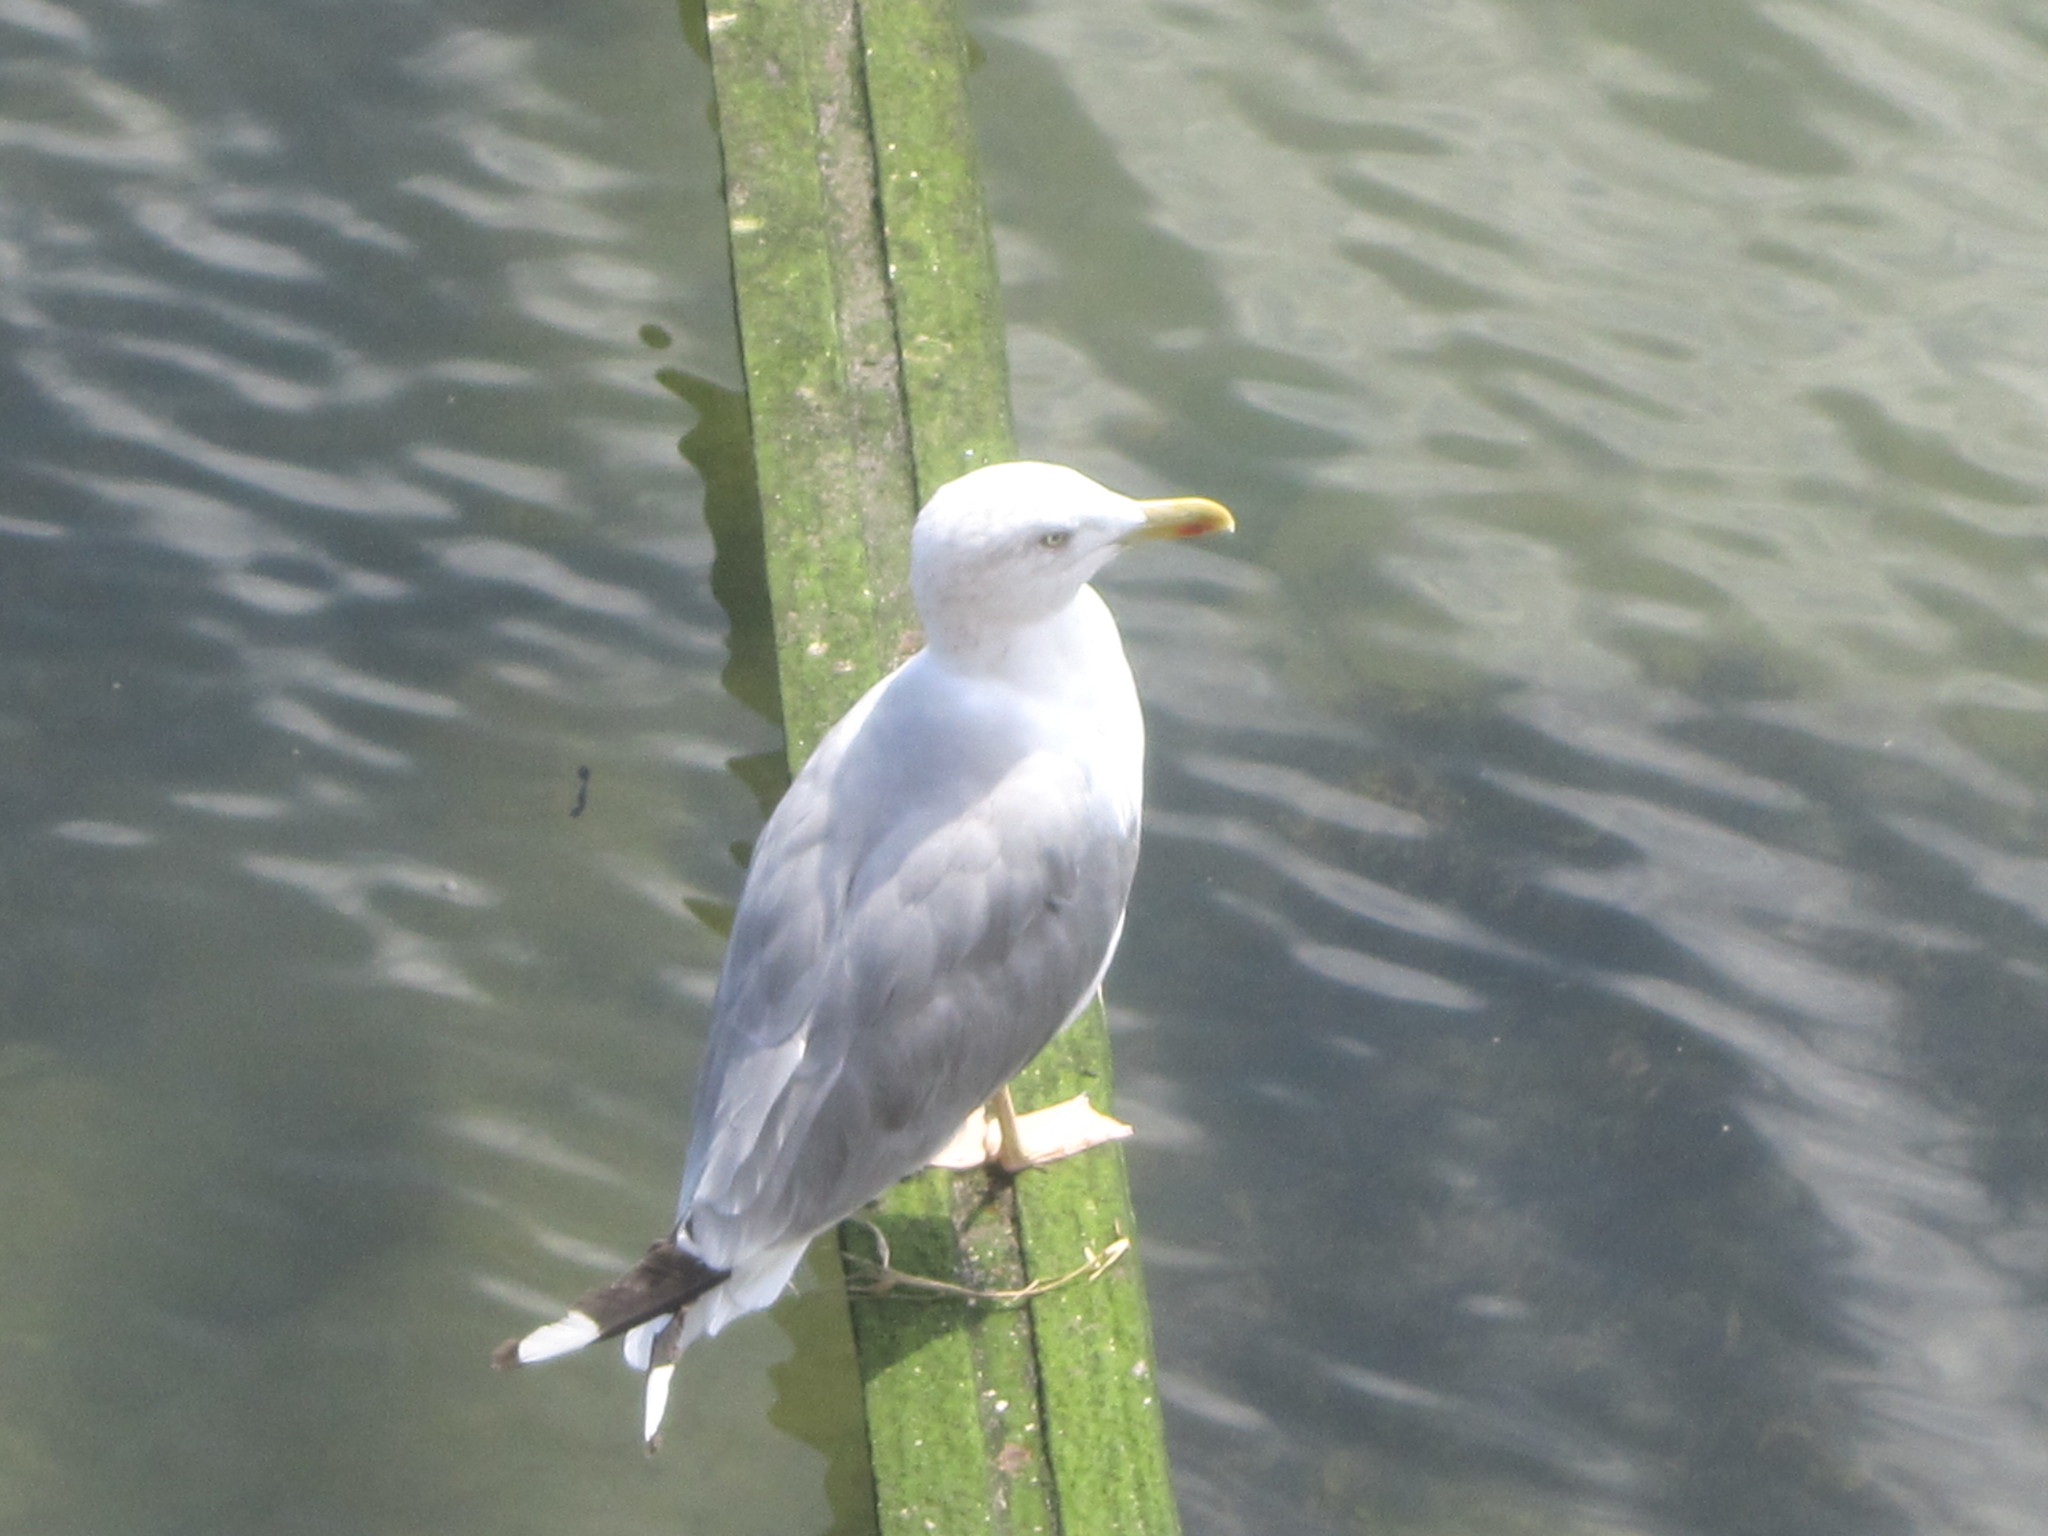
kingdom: Animalia
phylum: Chordata
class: Aves
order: Charadriiformes
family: Laridae
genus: Larus
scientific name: Larus michahellis
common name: Yellow-legged gull
